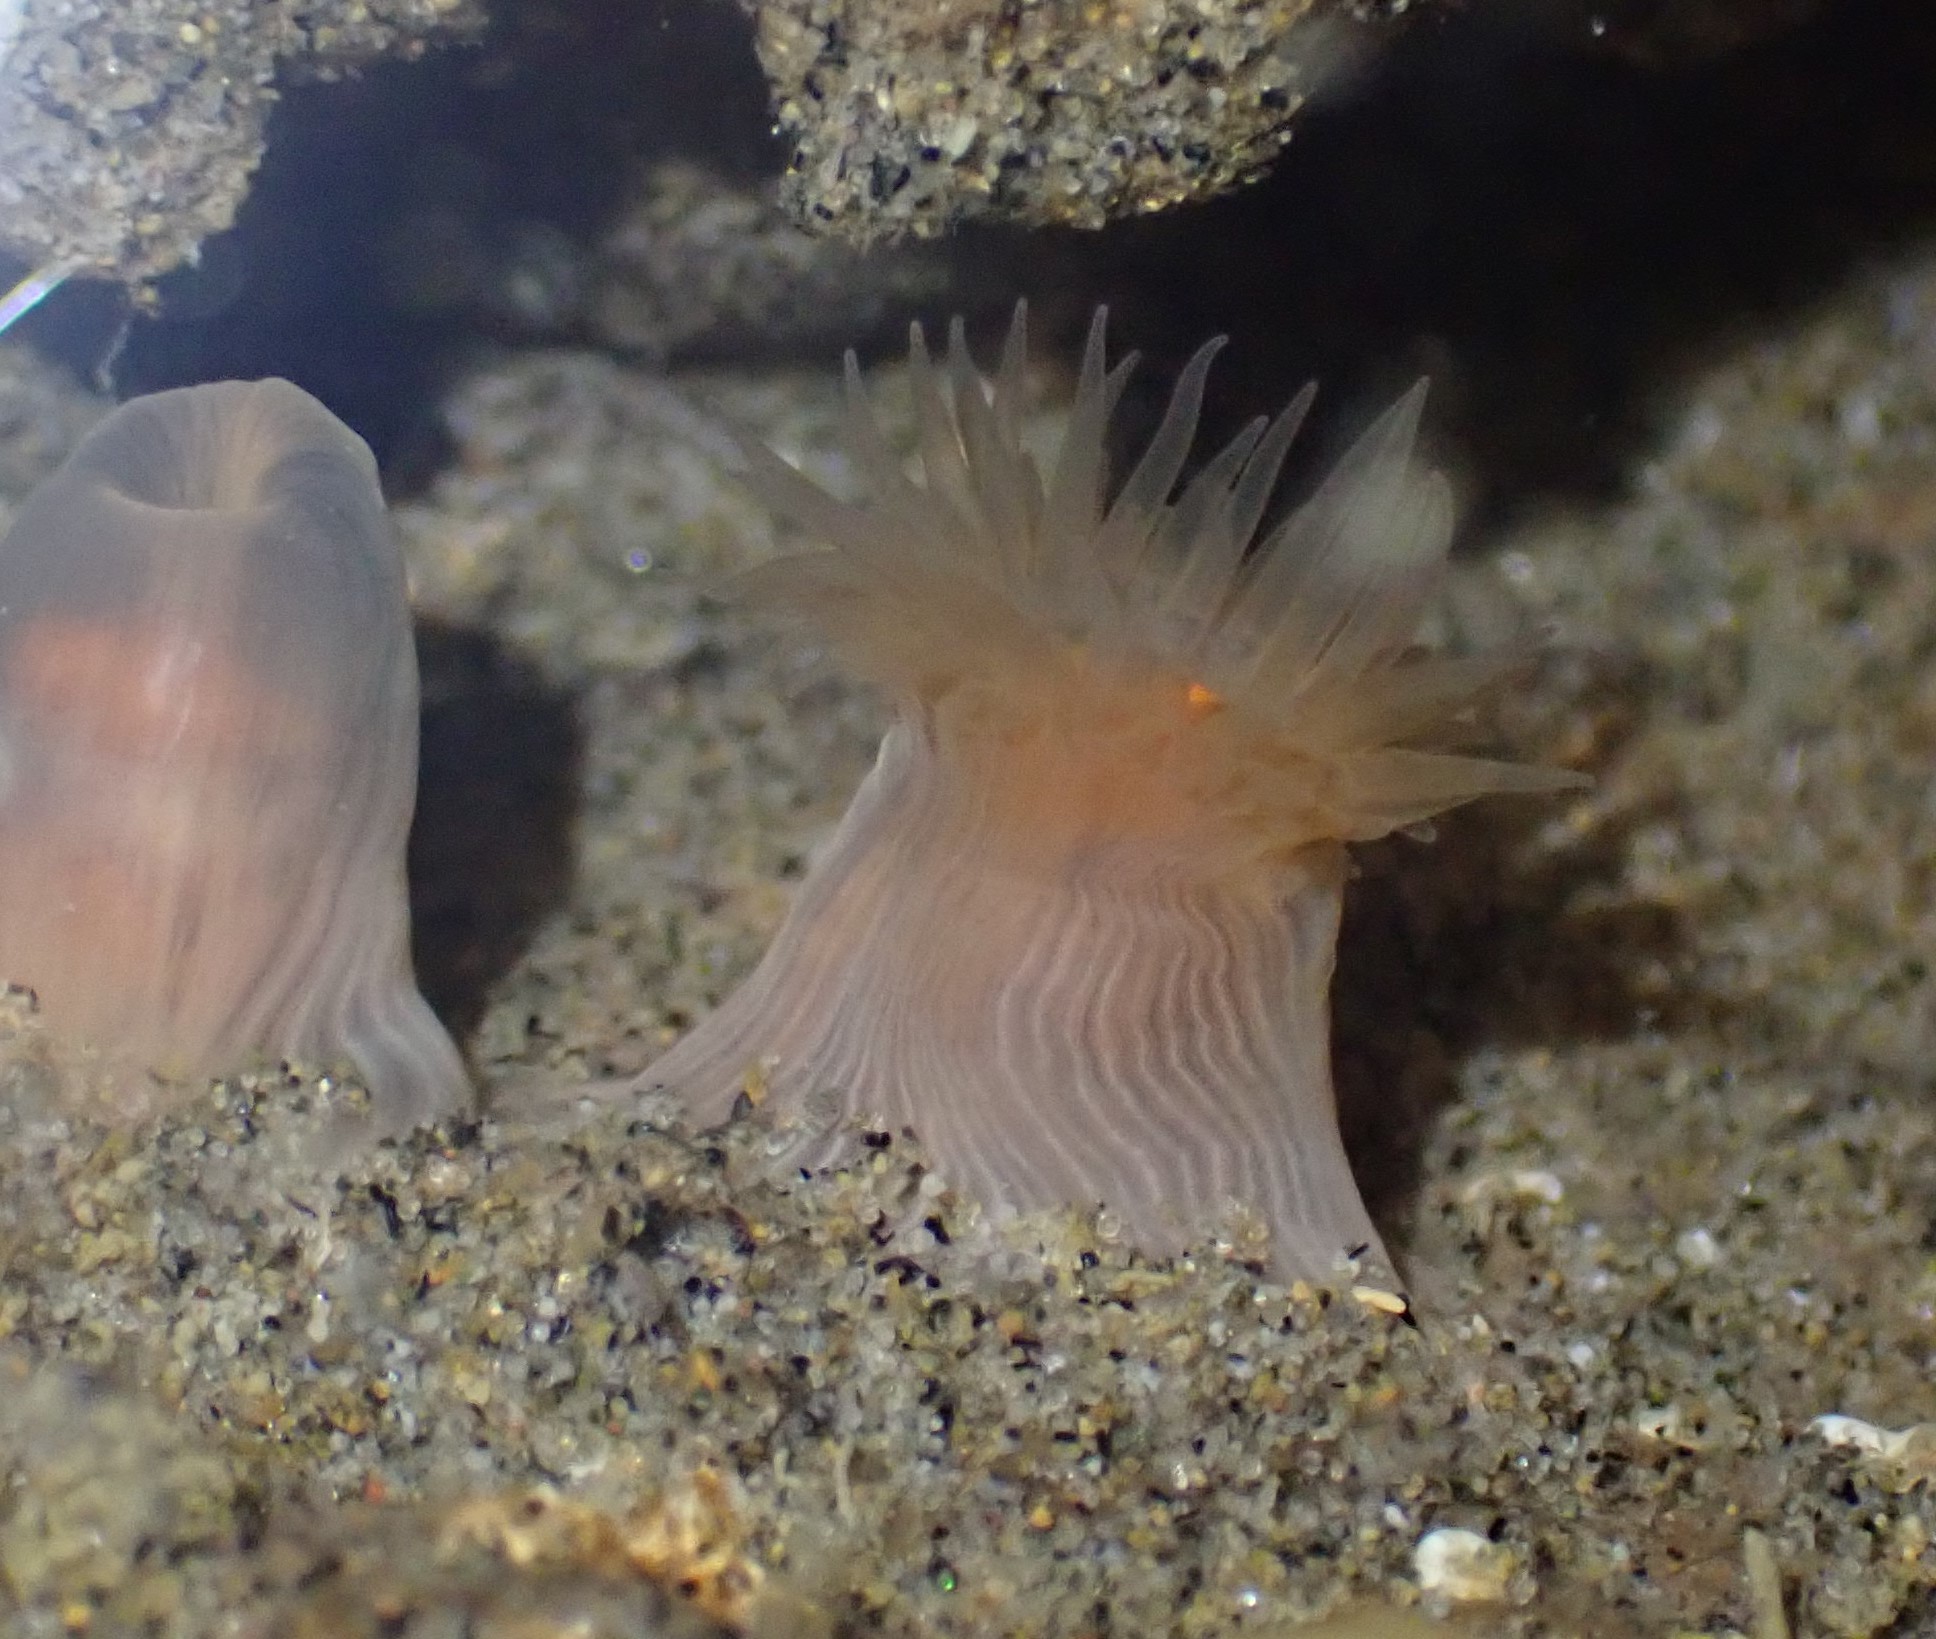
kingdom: Animalia
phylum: Cnidaria
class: Anthozoa
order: Actiniaria
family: Diadumenidae
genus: Diadumene
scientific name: Diadumene neozelanica
